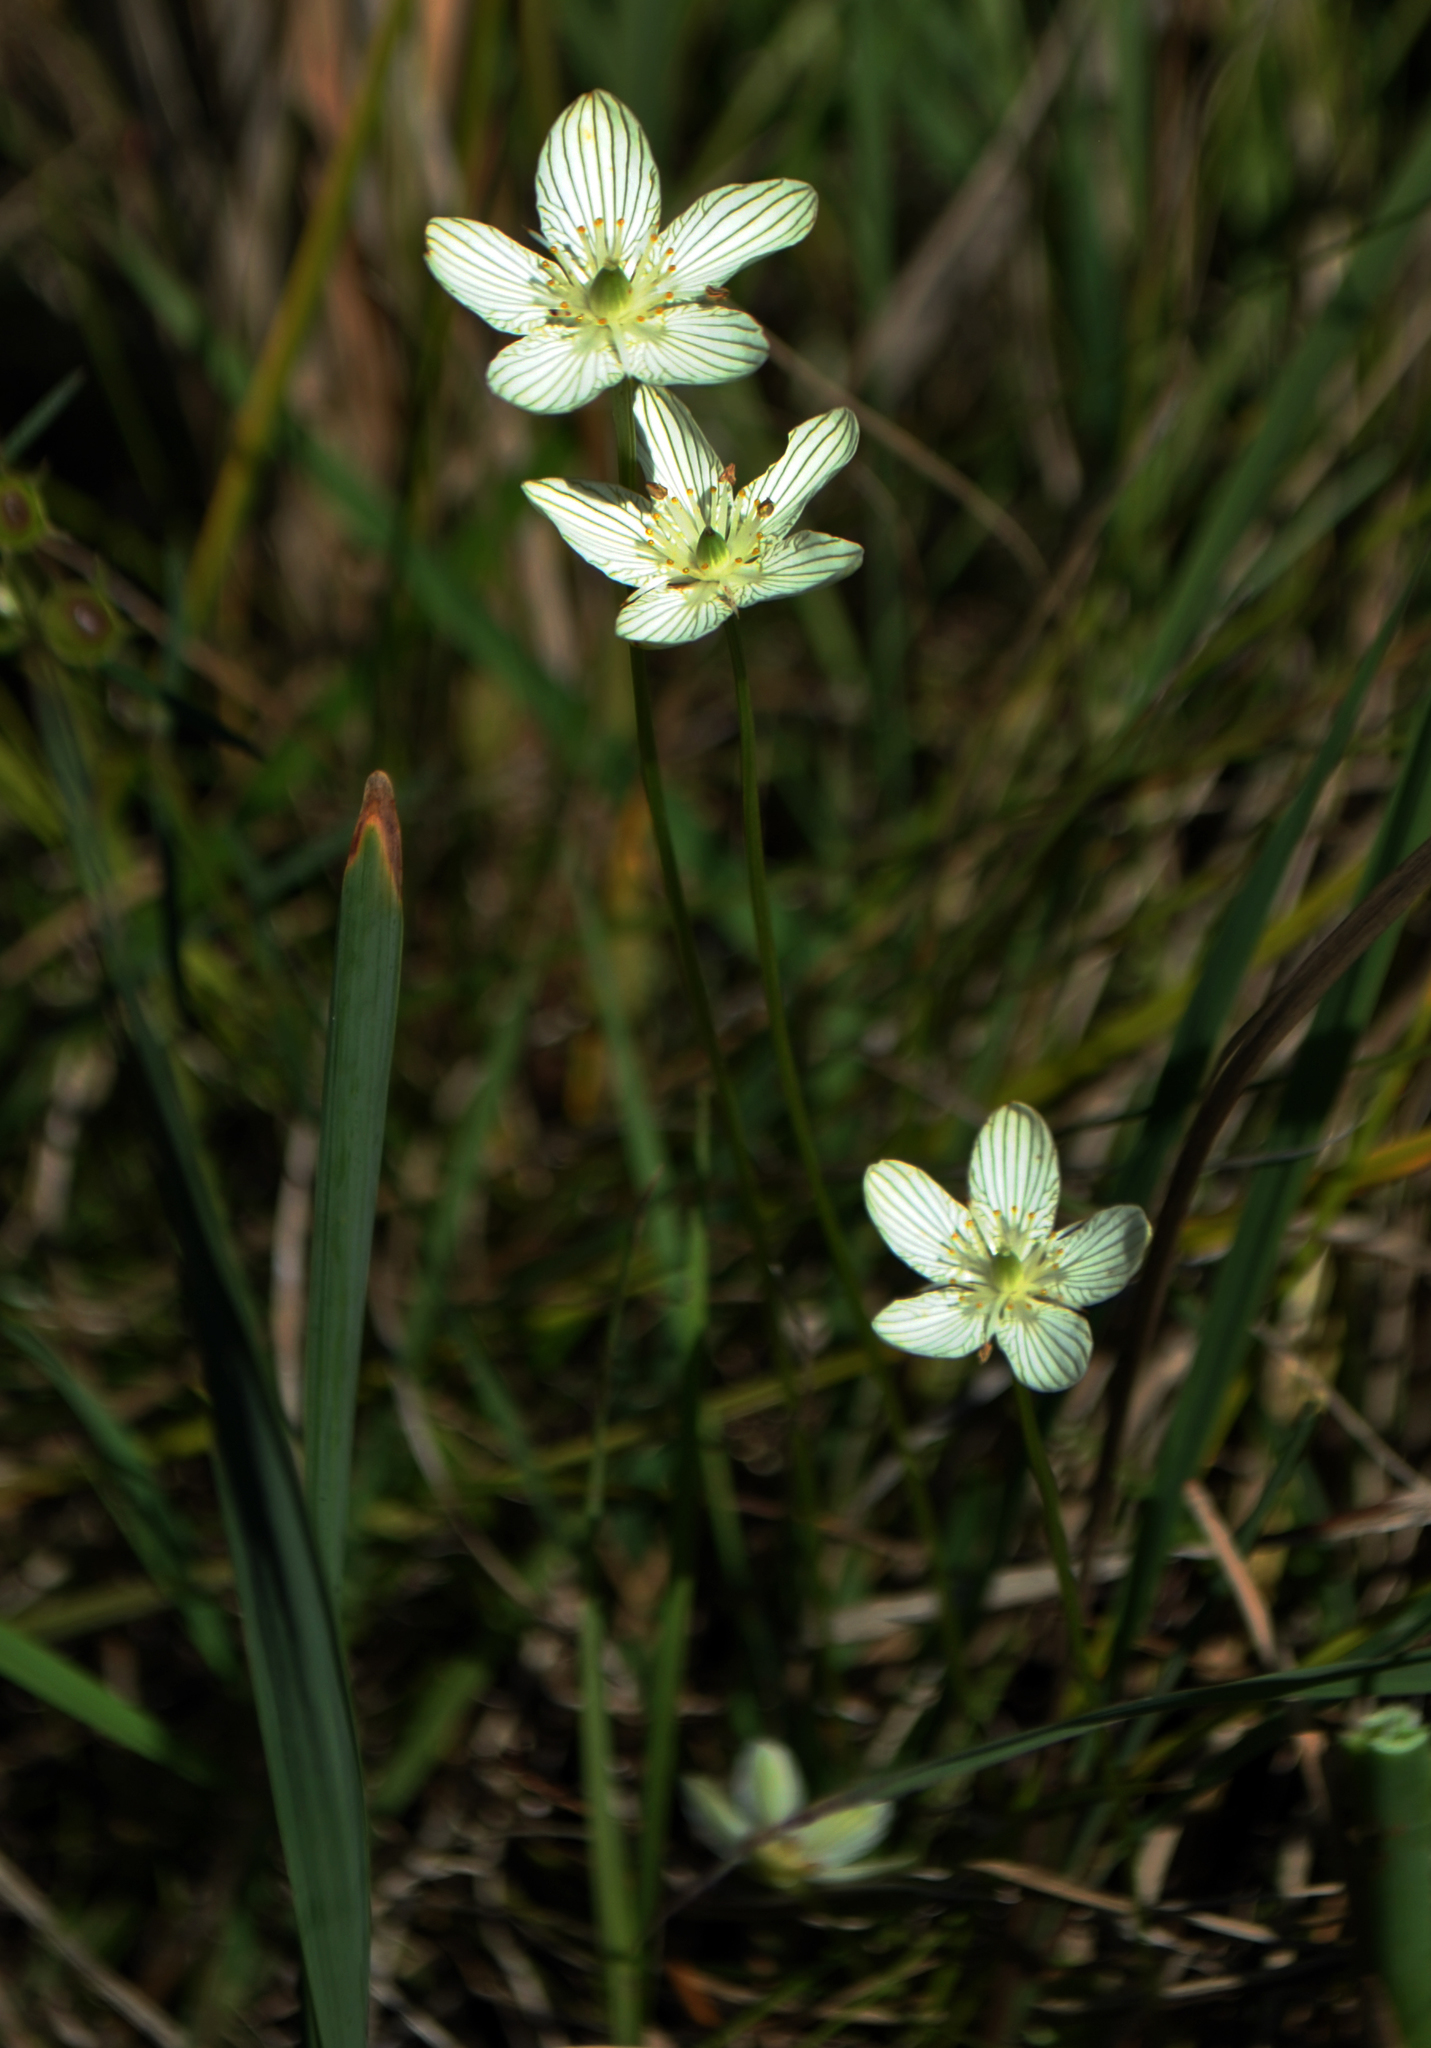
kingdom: Plantae
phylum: Tracheophyta
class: Magnoliopsida
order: Celastrales
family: Parnassiaceae
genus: Parnassia
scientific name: Parnassia glauca
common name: American grass-of-parnassus
